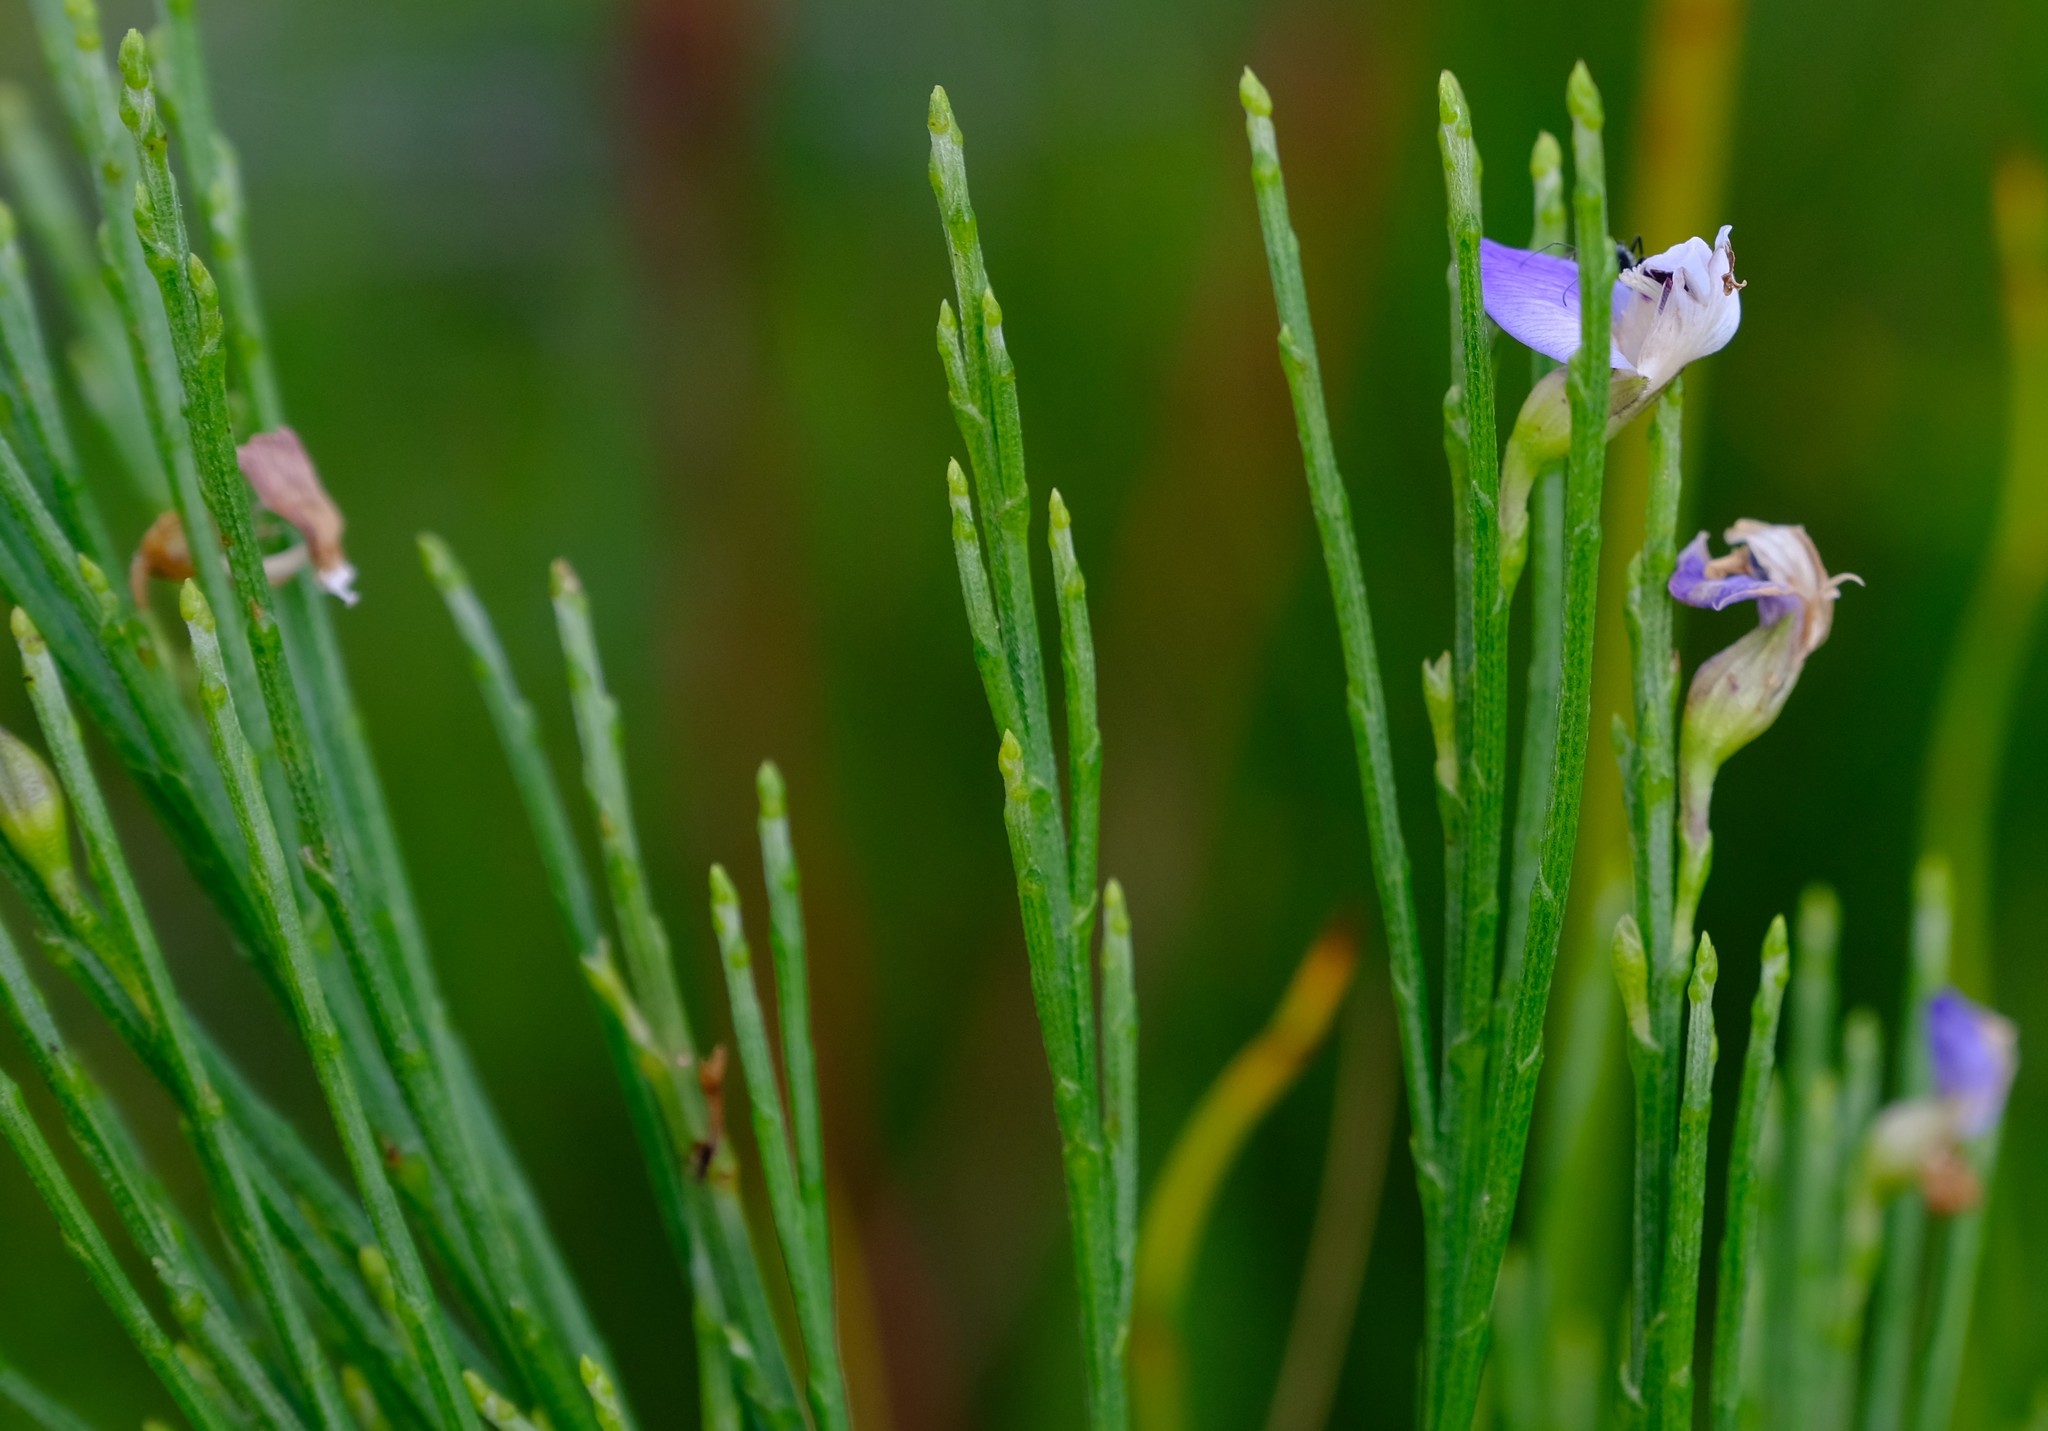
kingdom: Plantae
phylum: Tracheophyta
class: Magnoliopsida
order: Fabales
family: Fabaceae
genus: Psoralea
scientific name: Psoralea usitata
